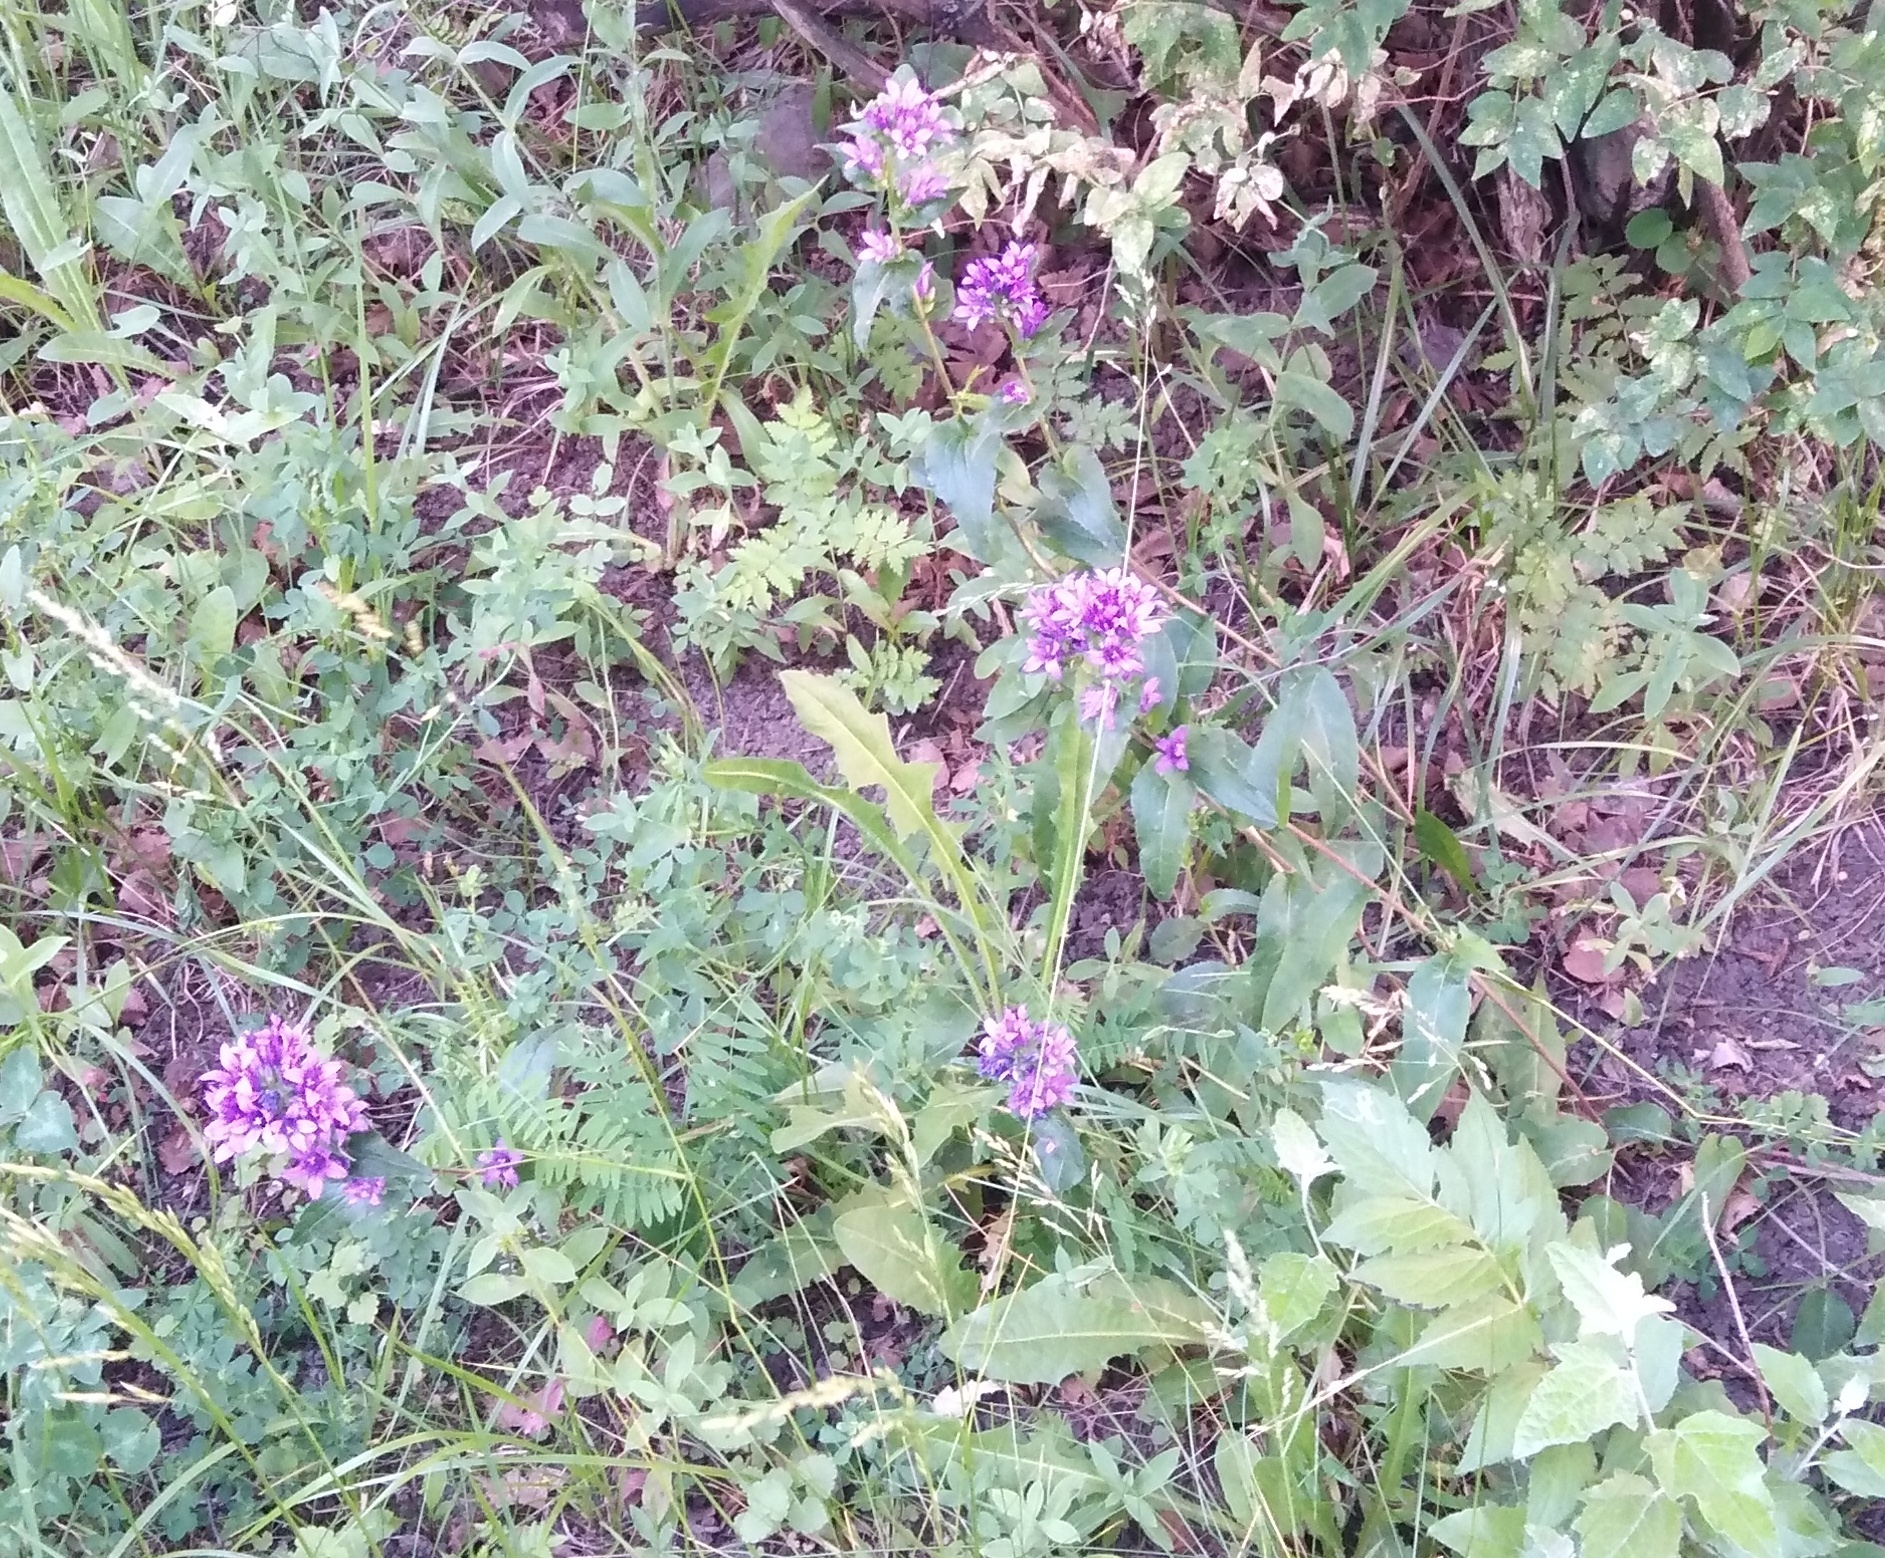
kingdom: Plantae
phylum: Tracheophyta
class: Magnoliopsida
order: Asterales
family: Campanulaceae
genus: Campanula
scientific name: Campanula glomerata
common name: Clustered bellflower
